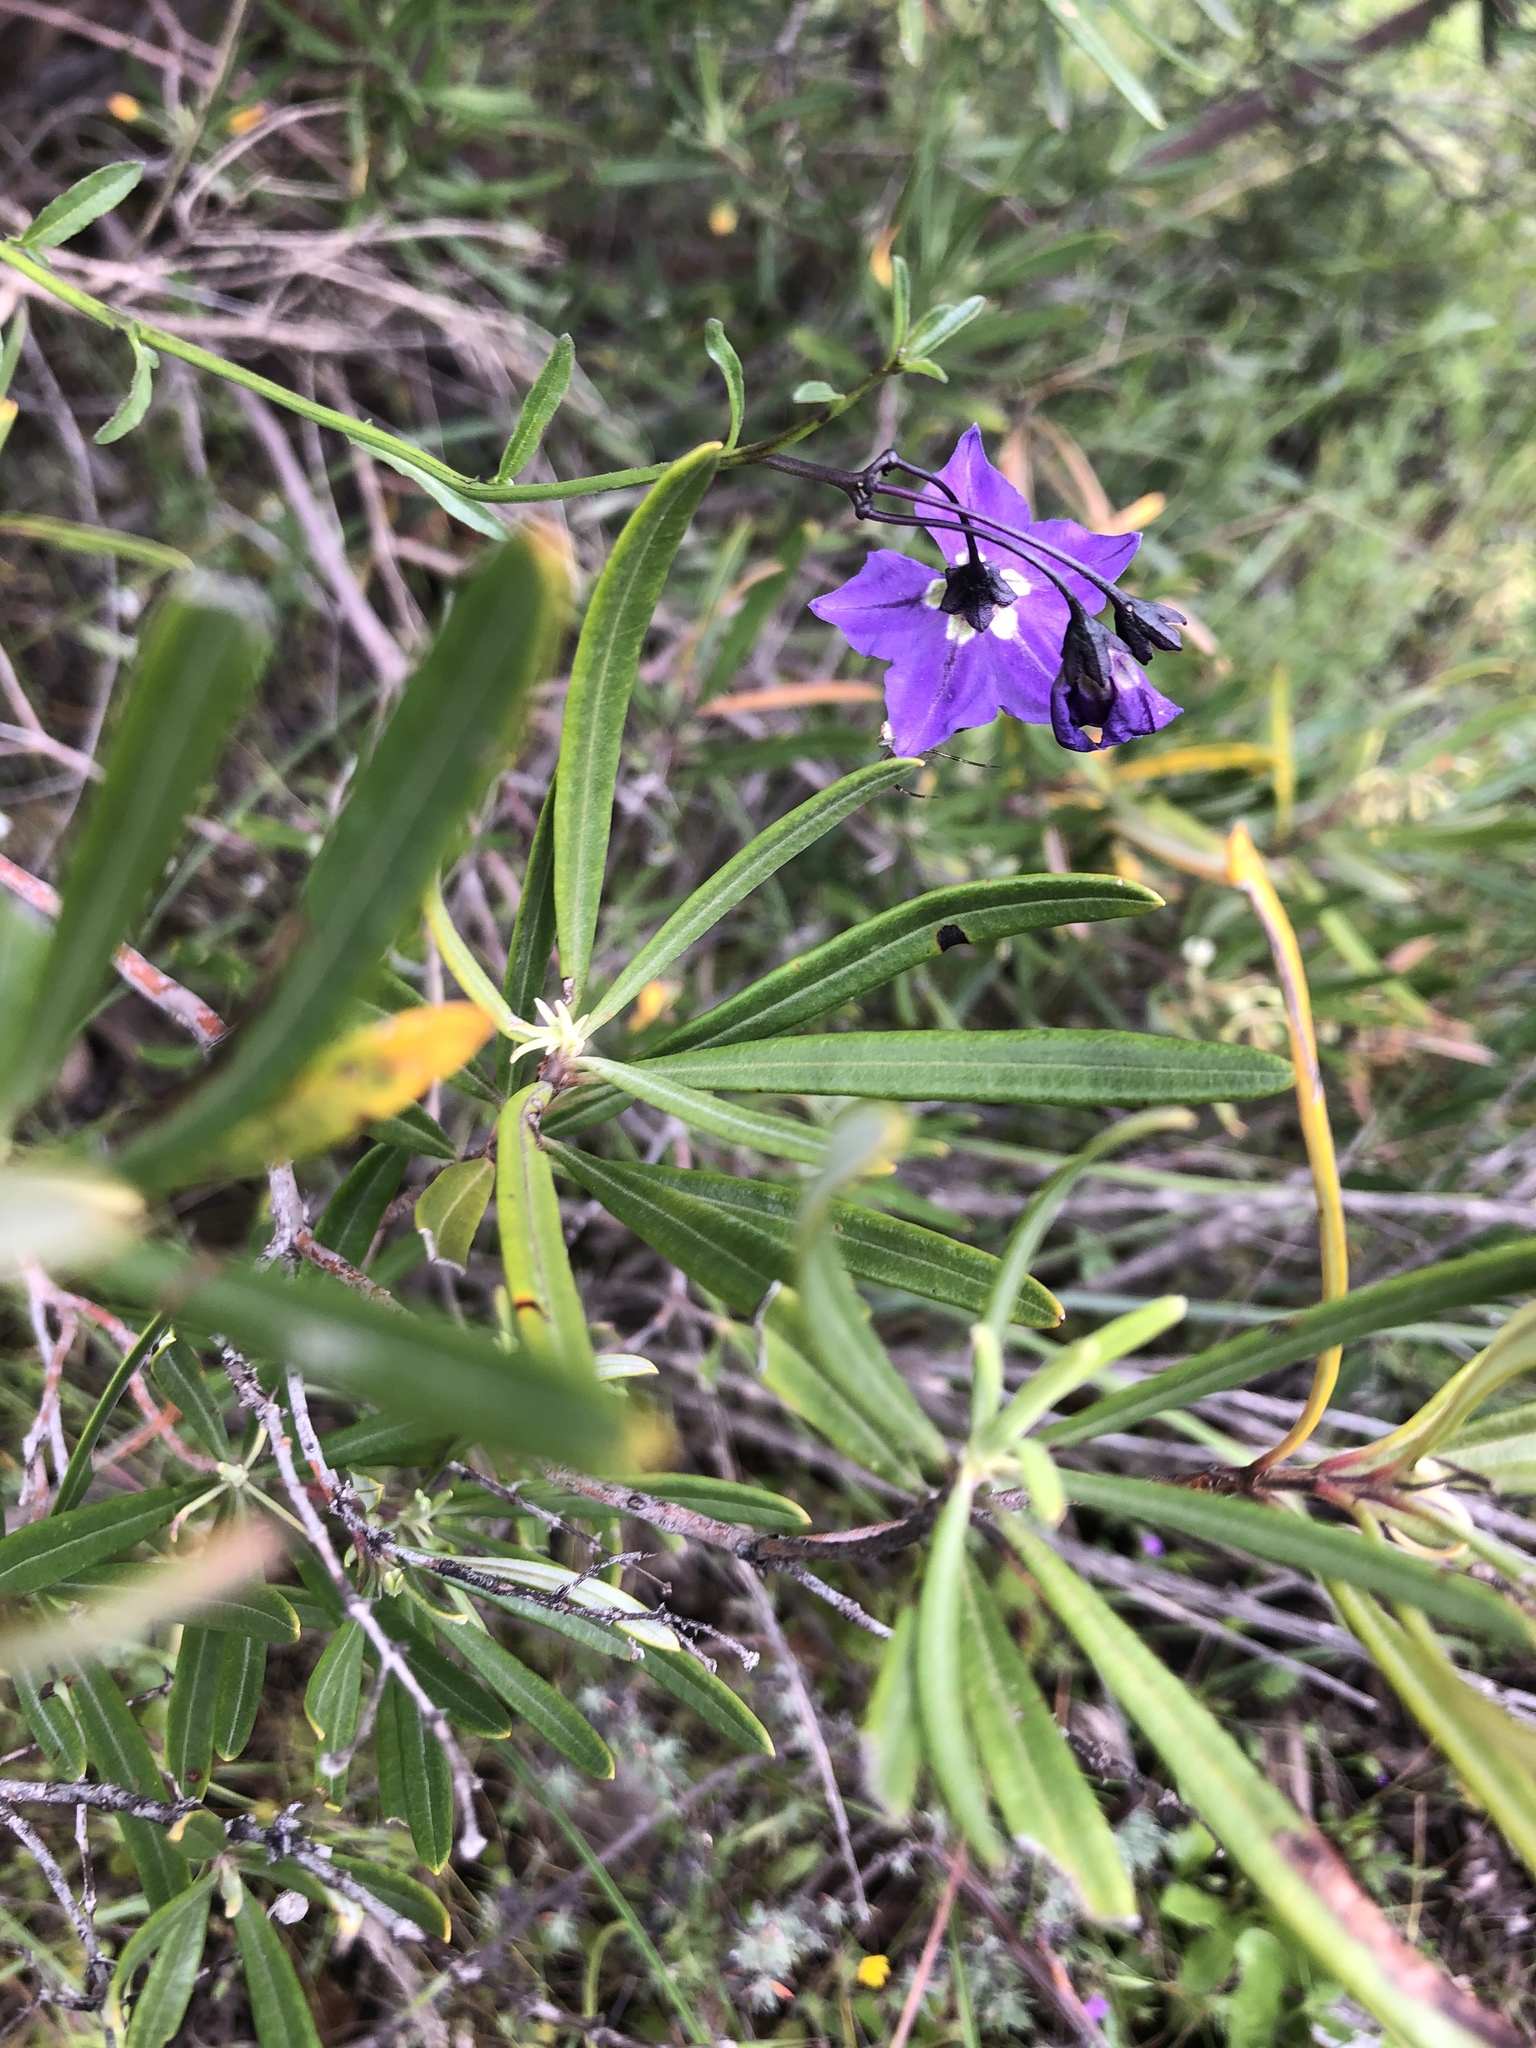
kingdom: Plantae
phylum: Tracheophyta
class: Magnoliopsida
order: Solanales
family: Solanaceae
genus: Solanum
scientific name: Solanum umbelliferum
